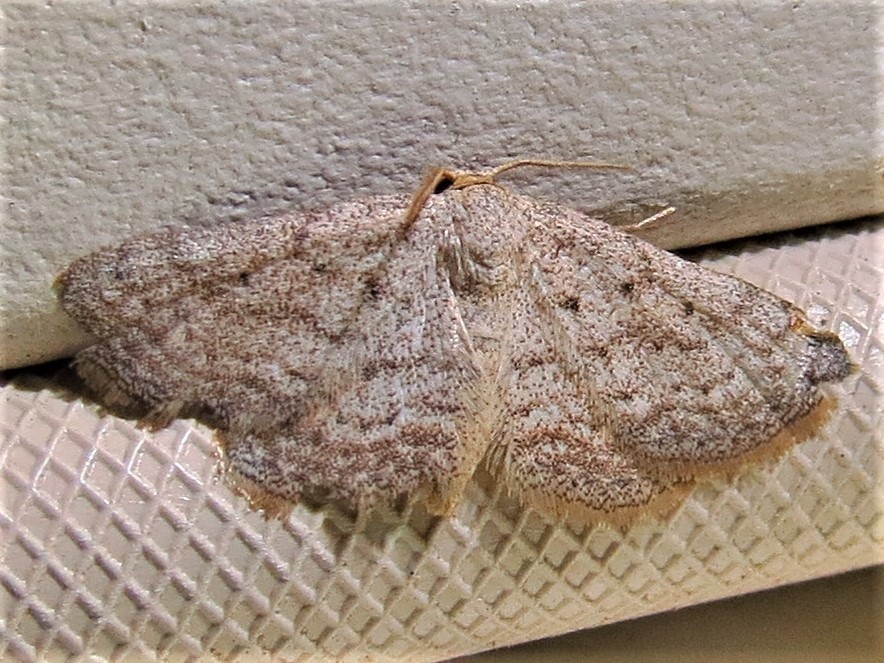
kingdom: Animalia
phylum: Arthropoda
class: Insecta
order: Lepidoptera
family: Geometridae
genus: Lobocleta
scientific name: Lobocleta ossularia
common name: Drab brown wave
